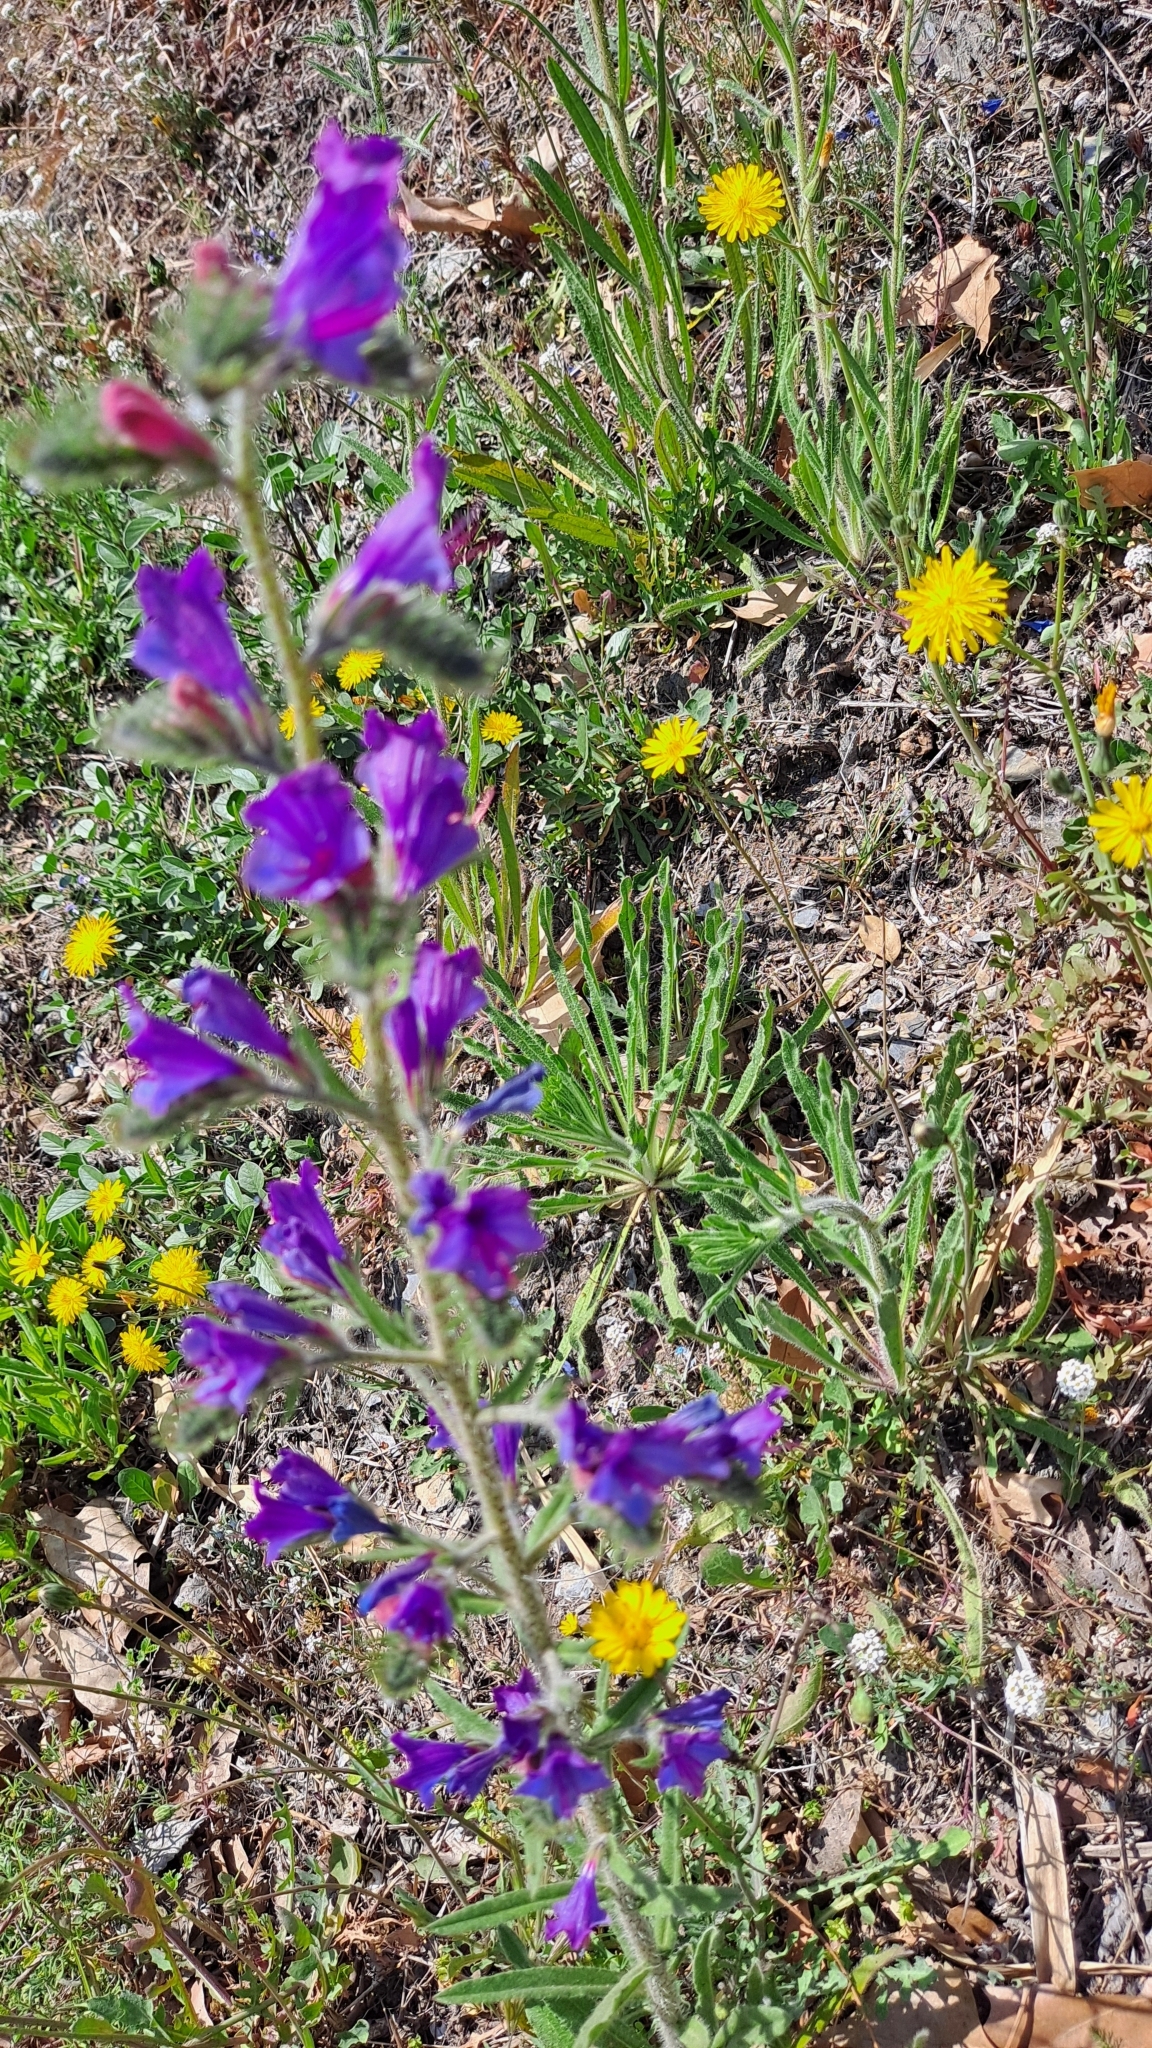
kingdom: Plantae
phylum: Tracheophyta
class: Magnoliopsida
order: Boraginales
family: Boraginaceae
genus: Echium
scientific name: Echium vulgare
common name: Common viper's bugloss
